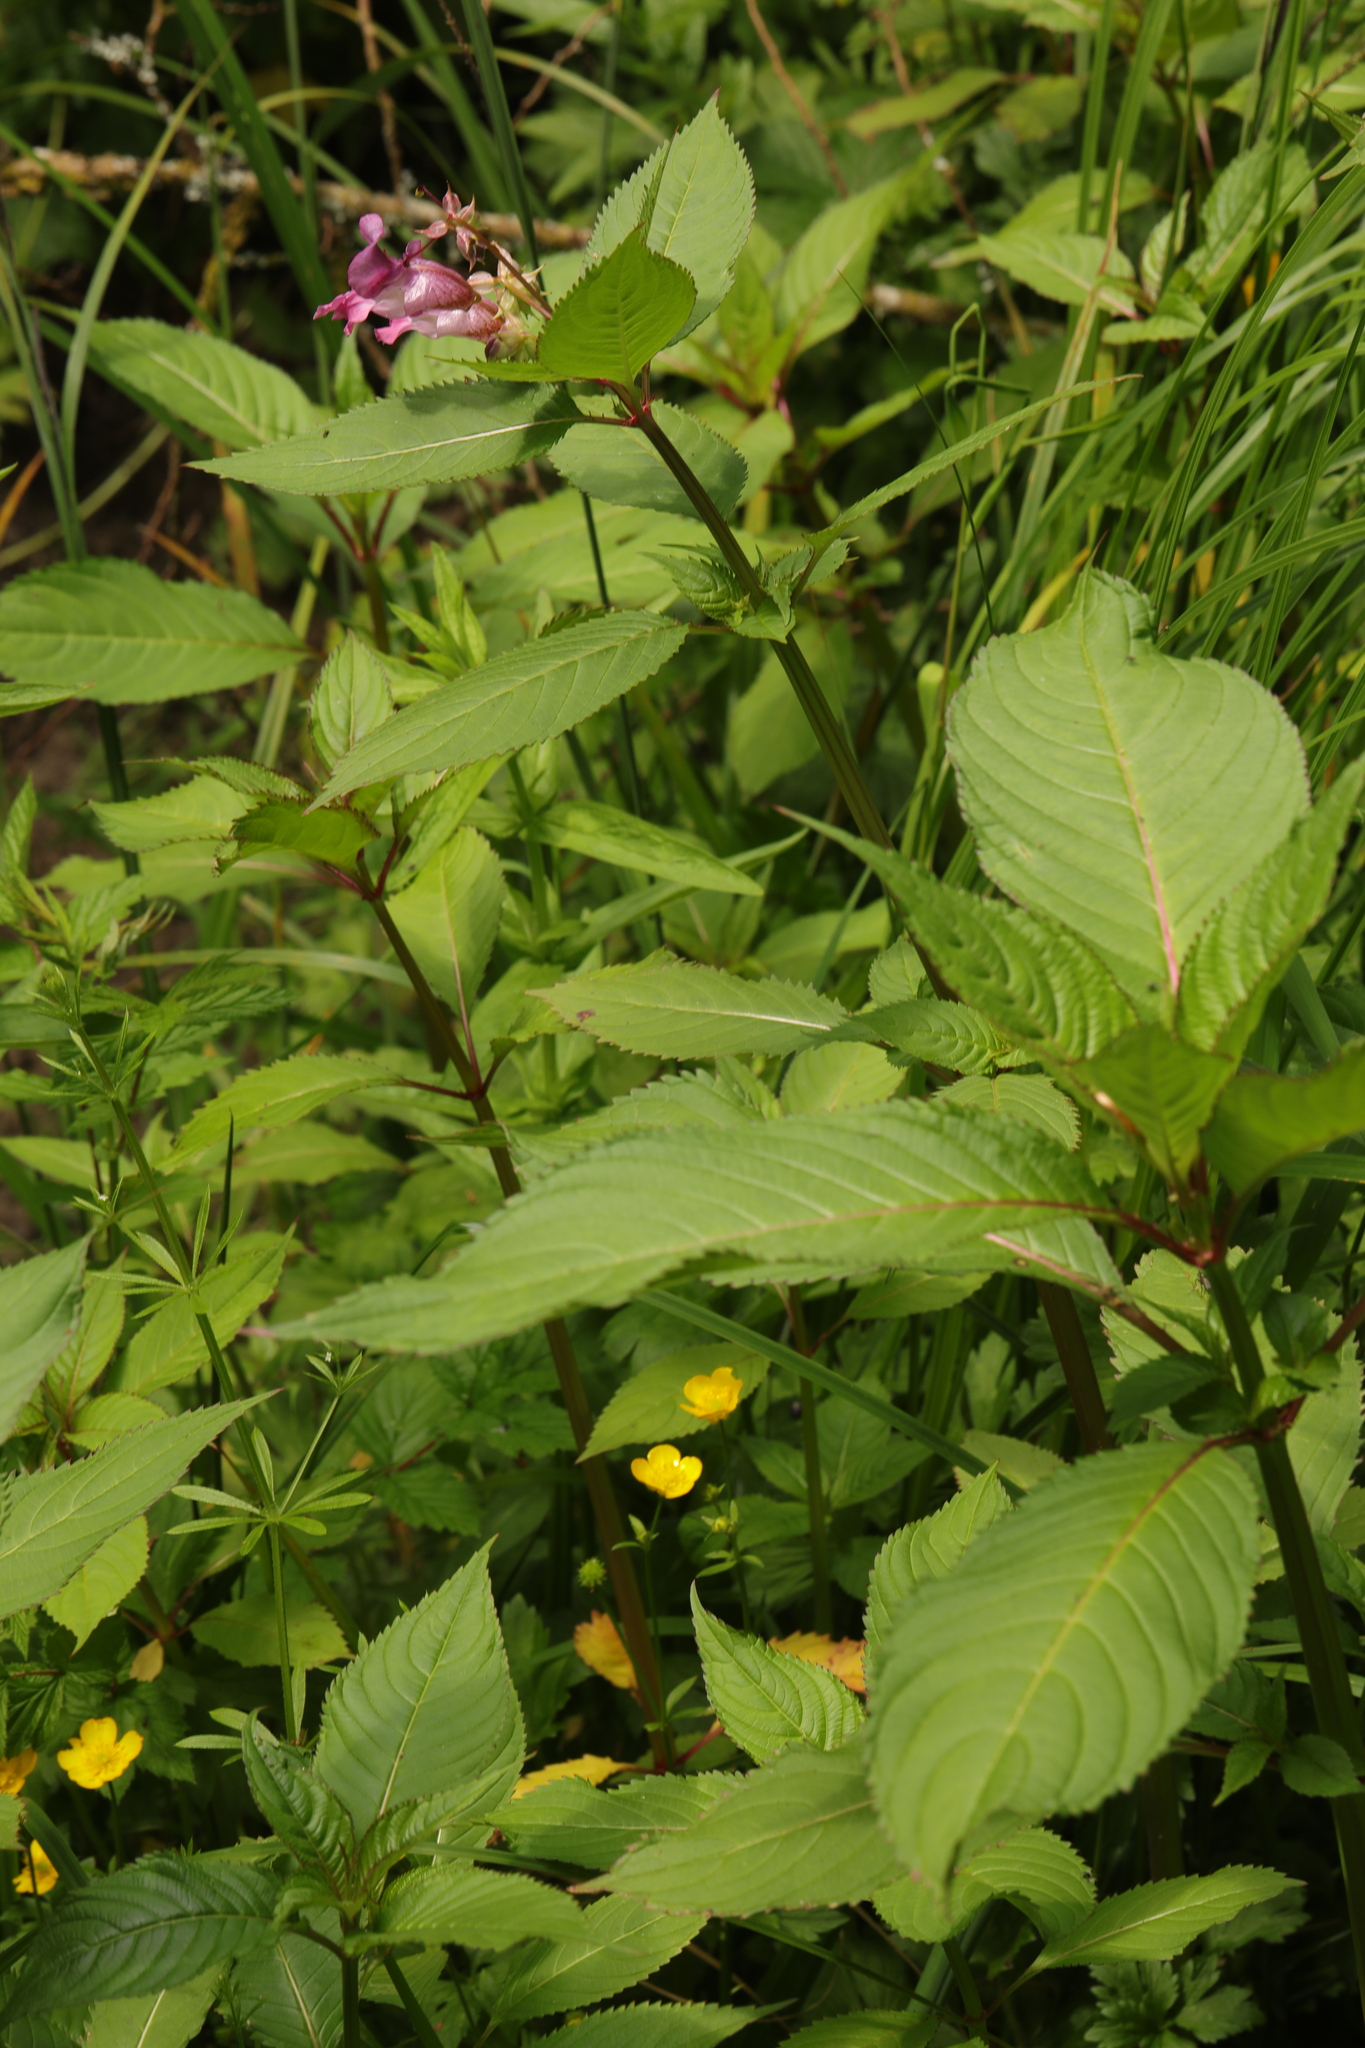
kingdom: Plantae
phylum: Tracheophyta
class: Magnoliopsida
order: Ericales
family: Balsaminaceae
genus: Impatiens
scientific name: Impatiens glandulifera
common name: Himalayan balsam
